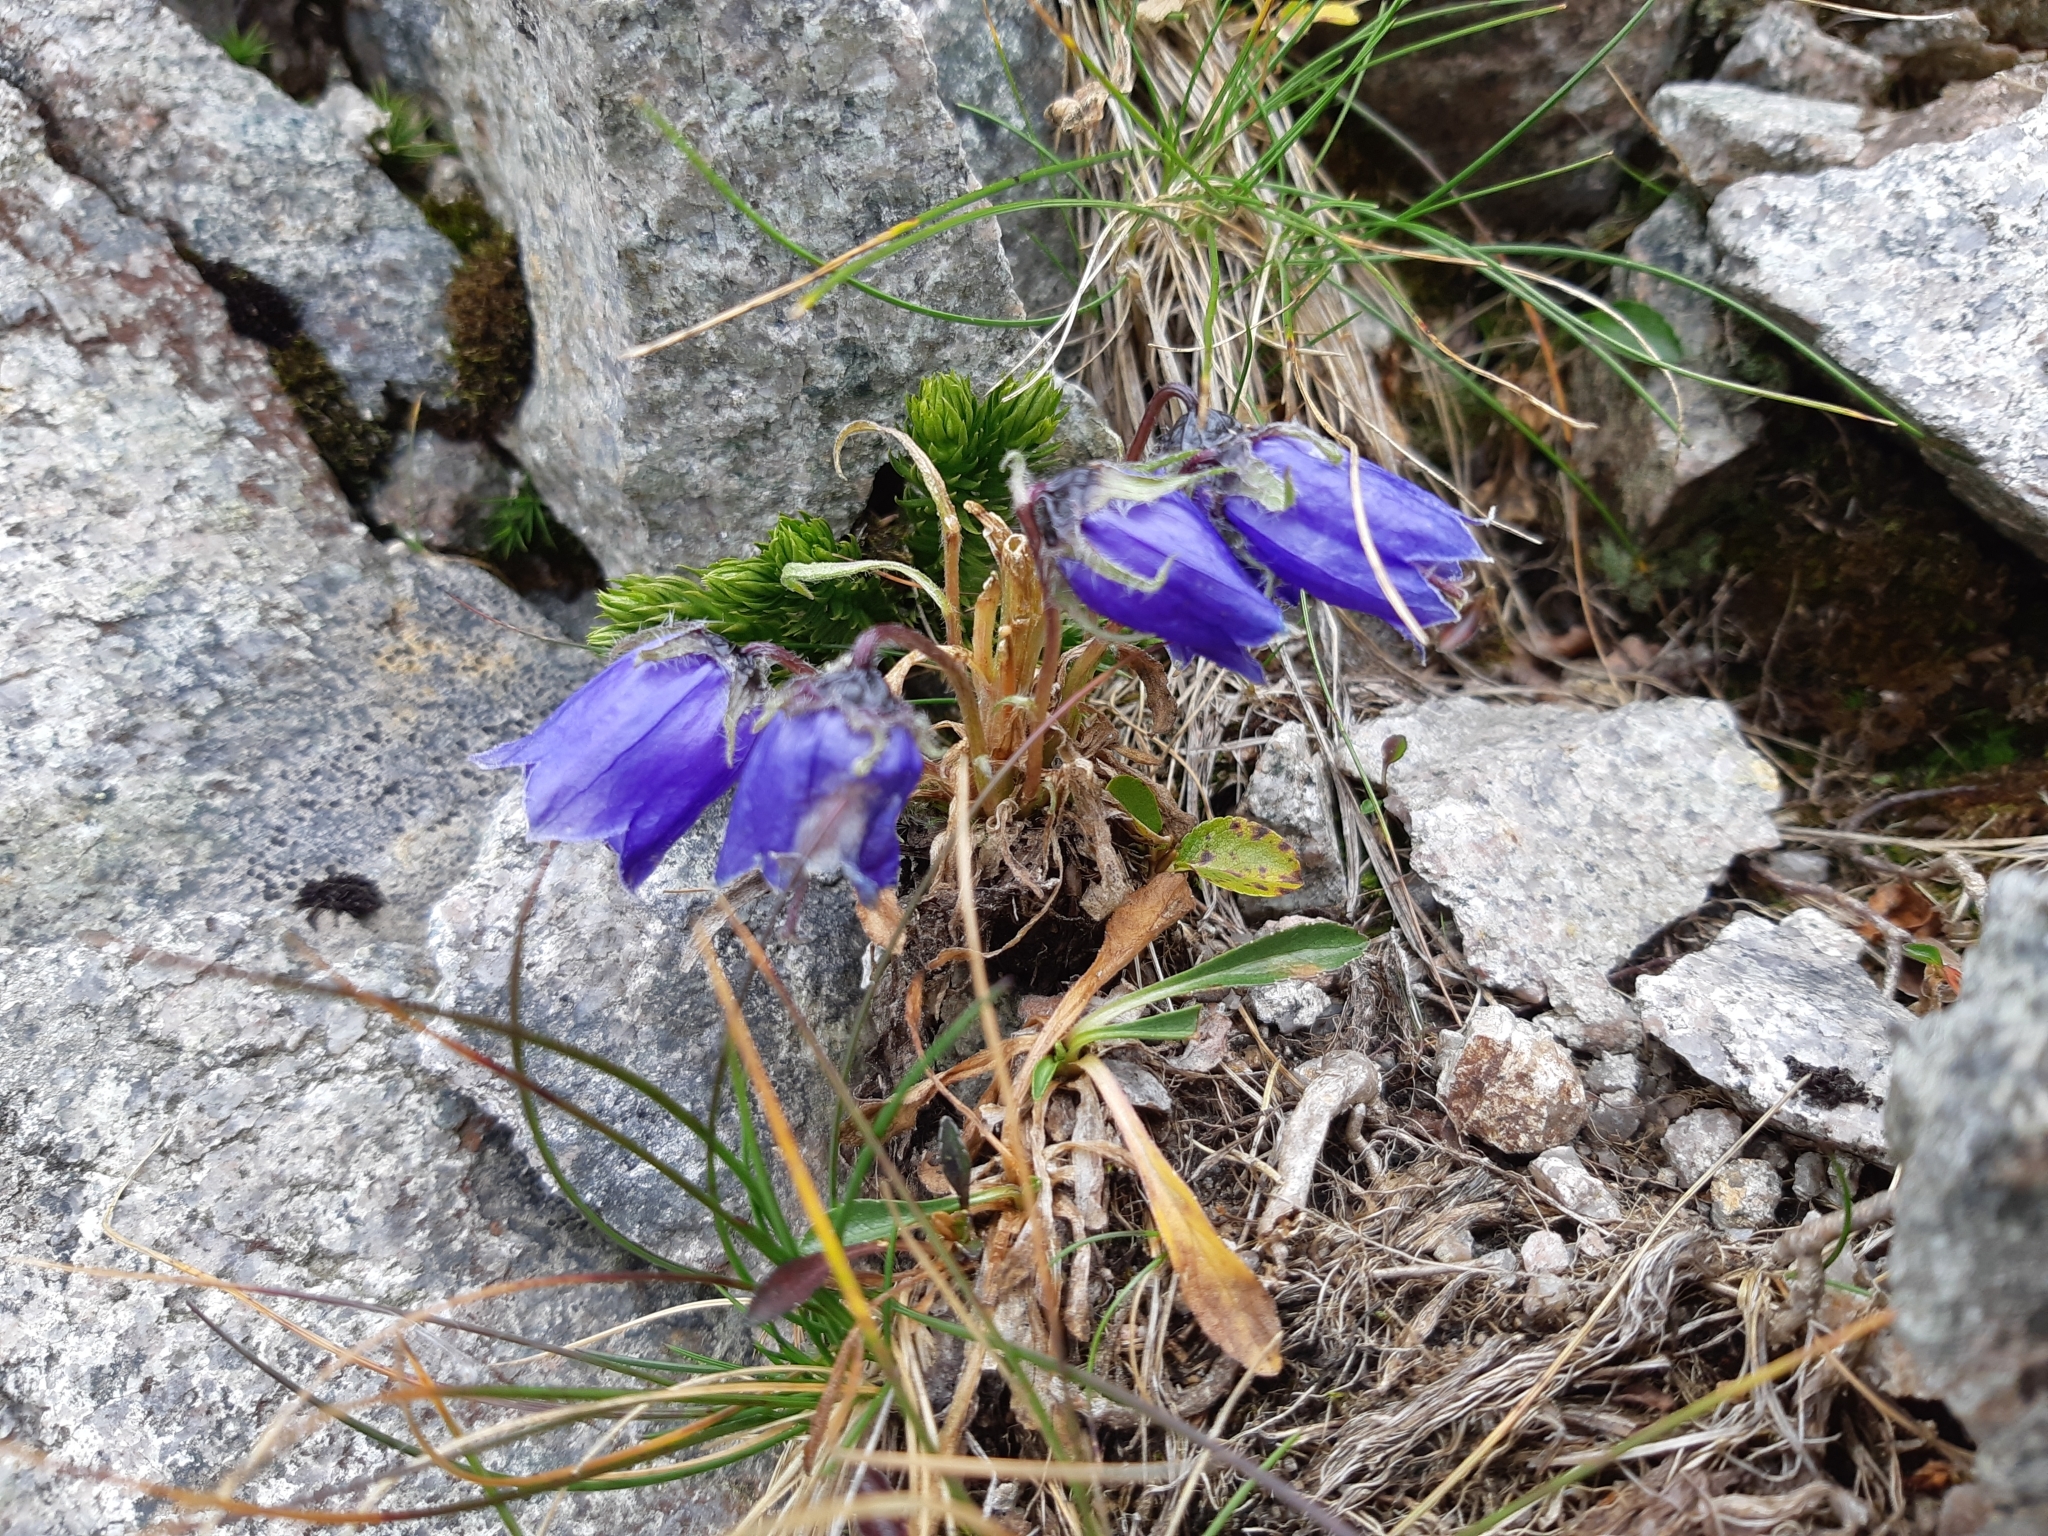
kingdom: Plantae
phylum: Tracheophyta
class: Magnoliopsida
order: Asterales
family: Campanulaceae
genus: Campanula
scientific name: Campanula alpina
